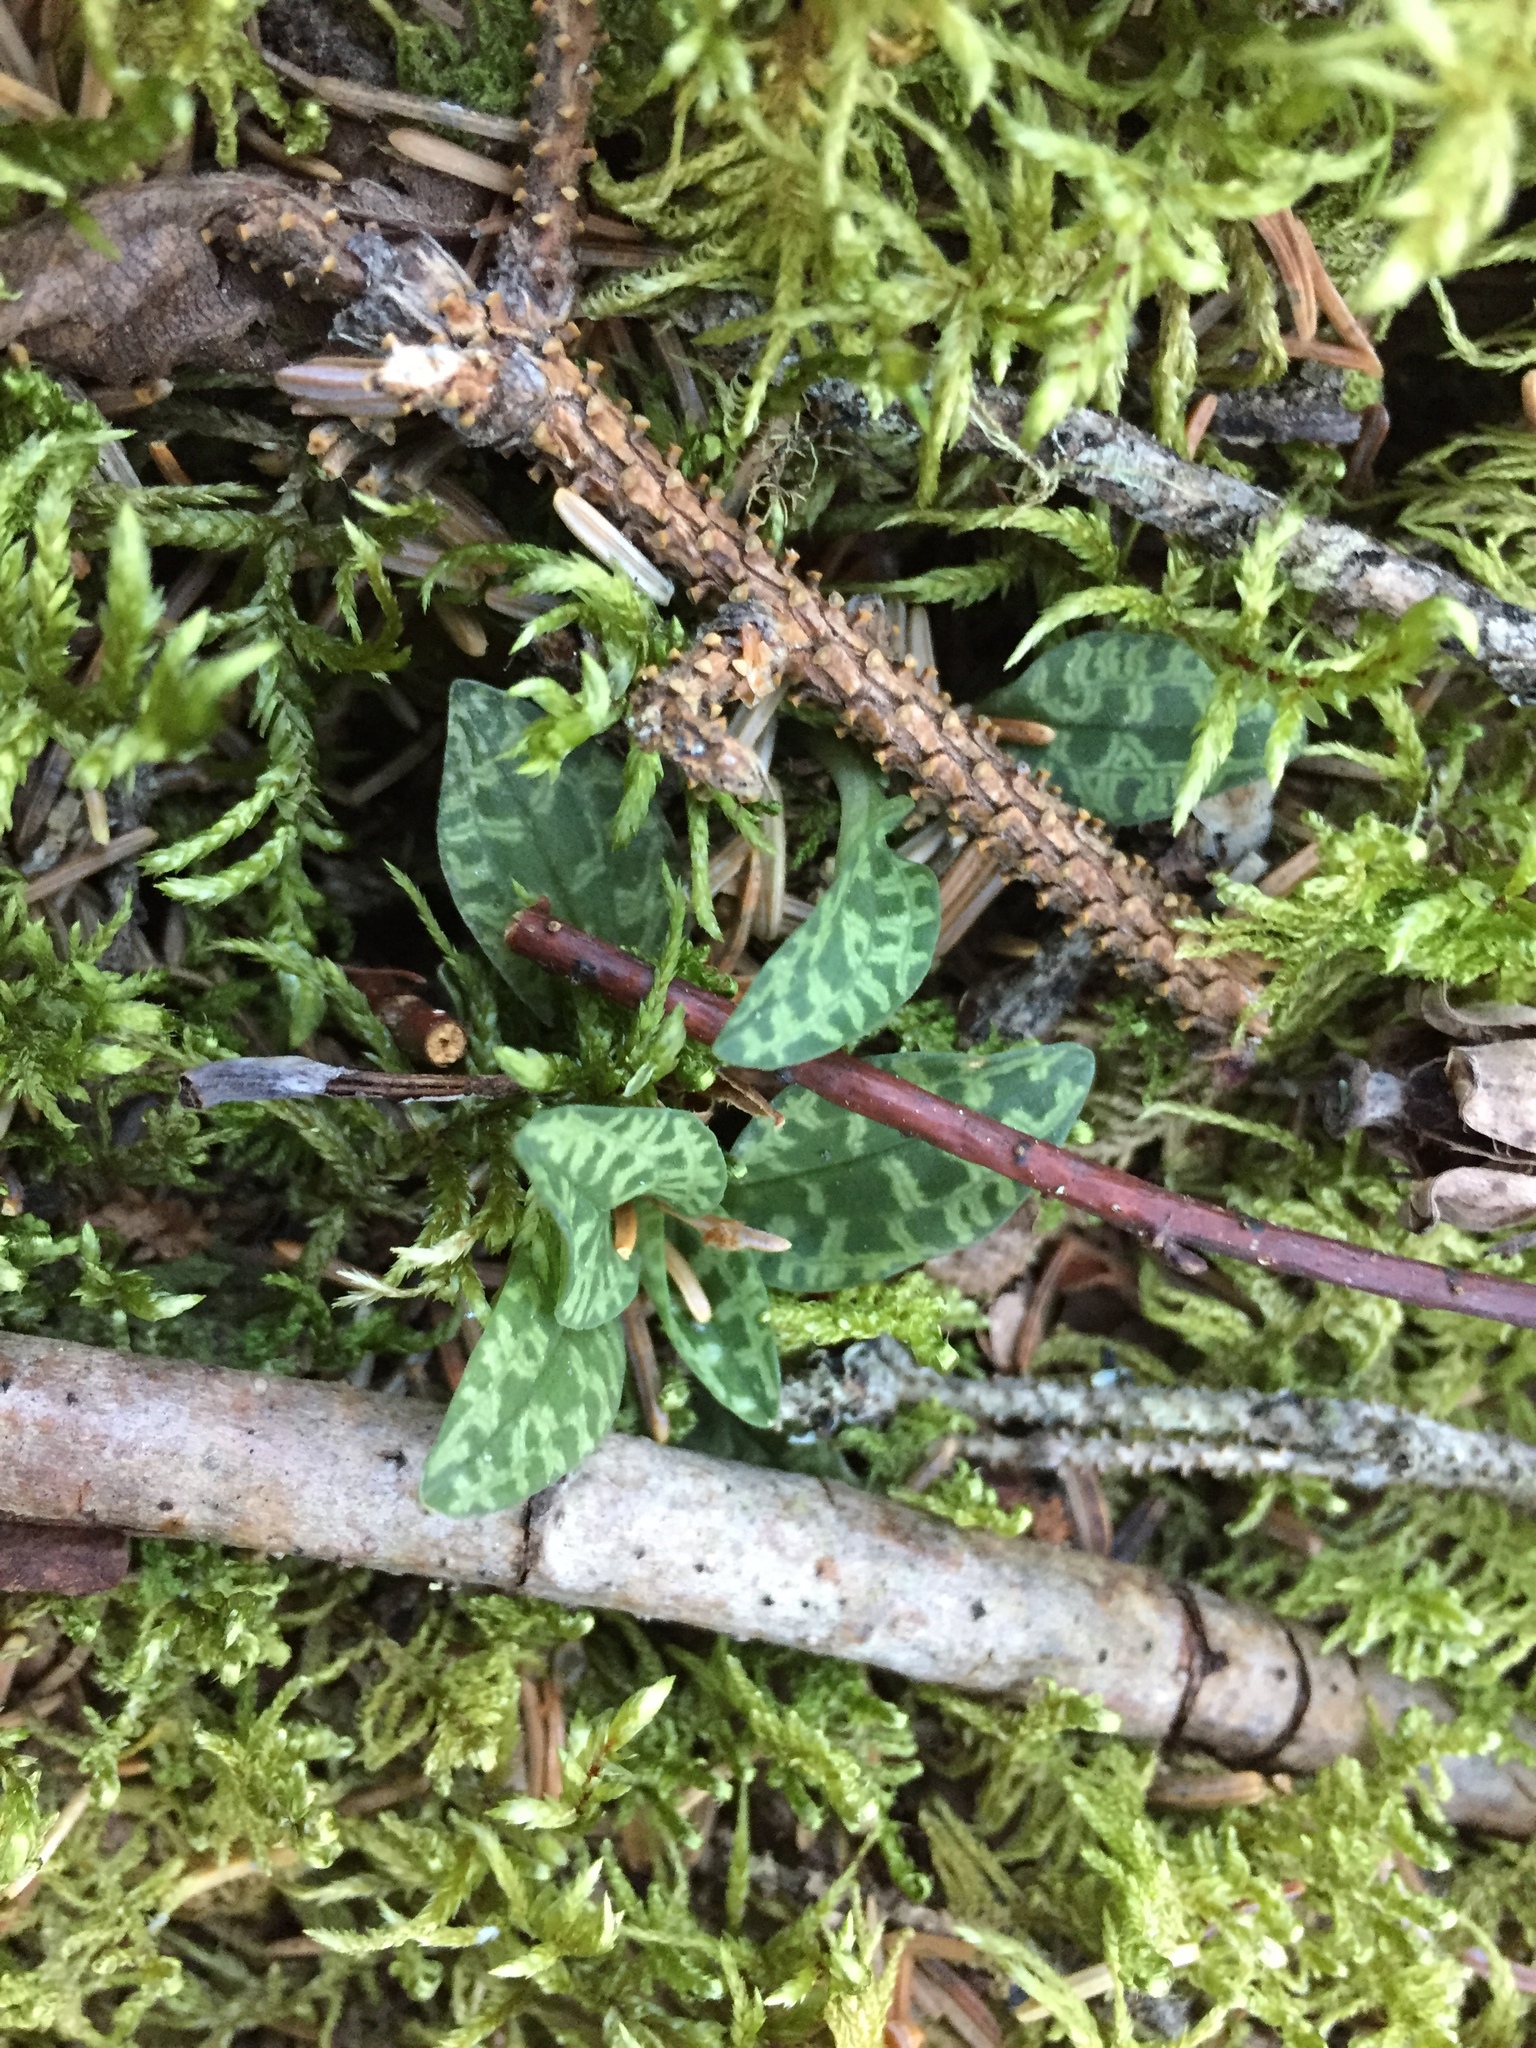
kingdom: Plantae
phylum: Tracheophyta
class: Liliopsida
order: Asparagales
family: Orchidaceae
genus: Goodyera
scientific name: Goodyera repens
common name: Creeping lady's-tresses
